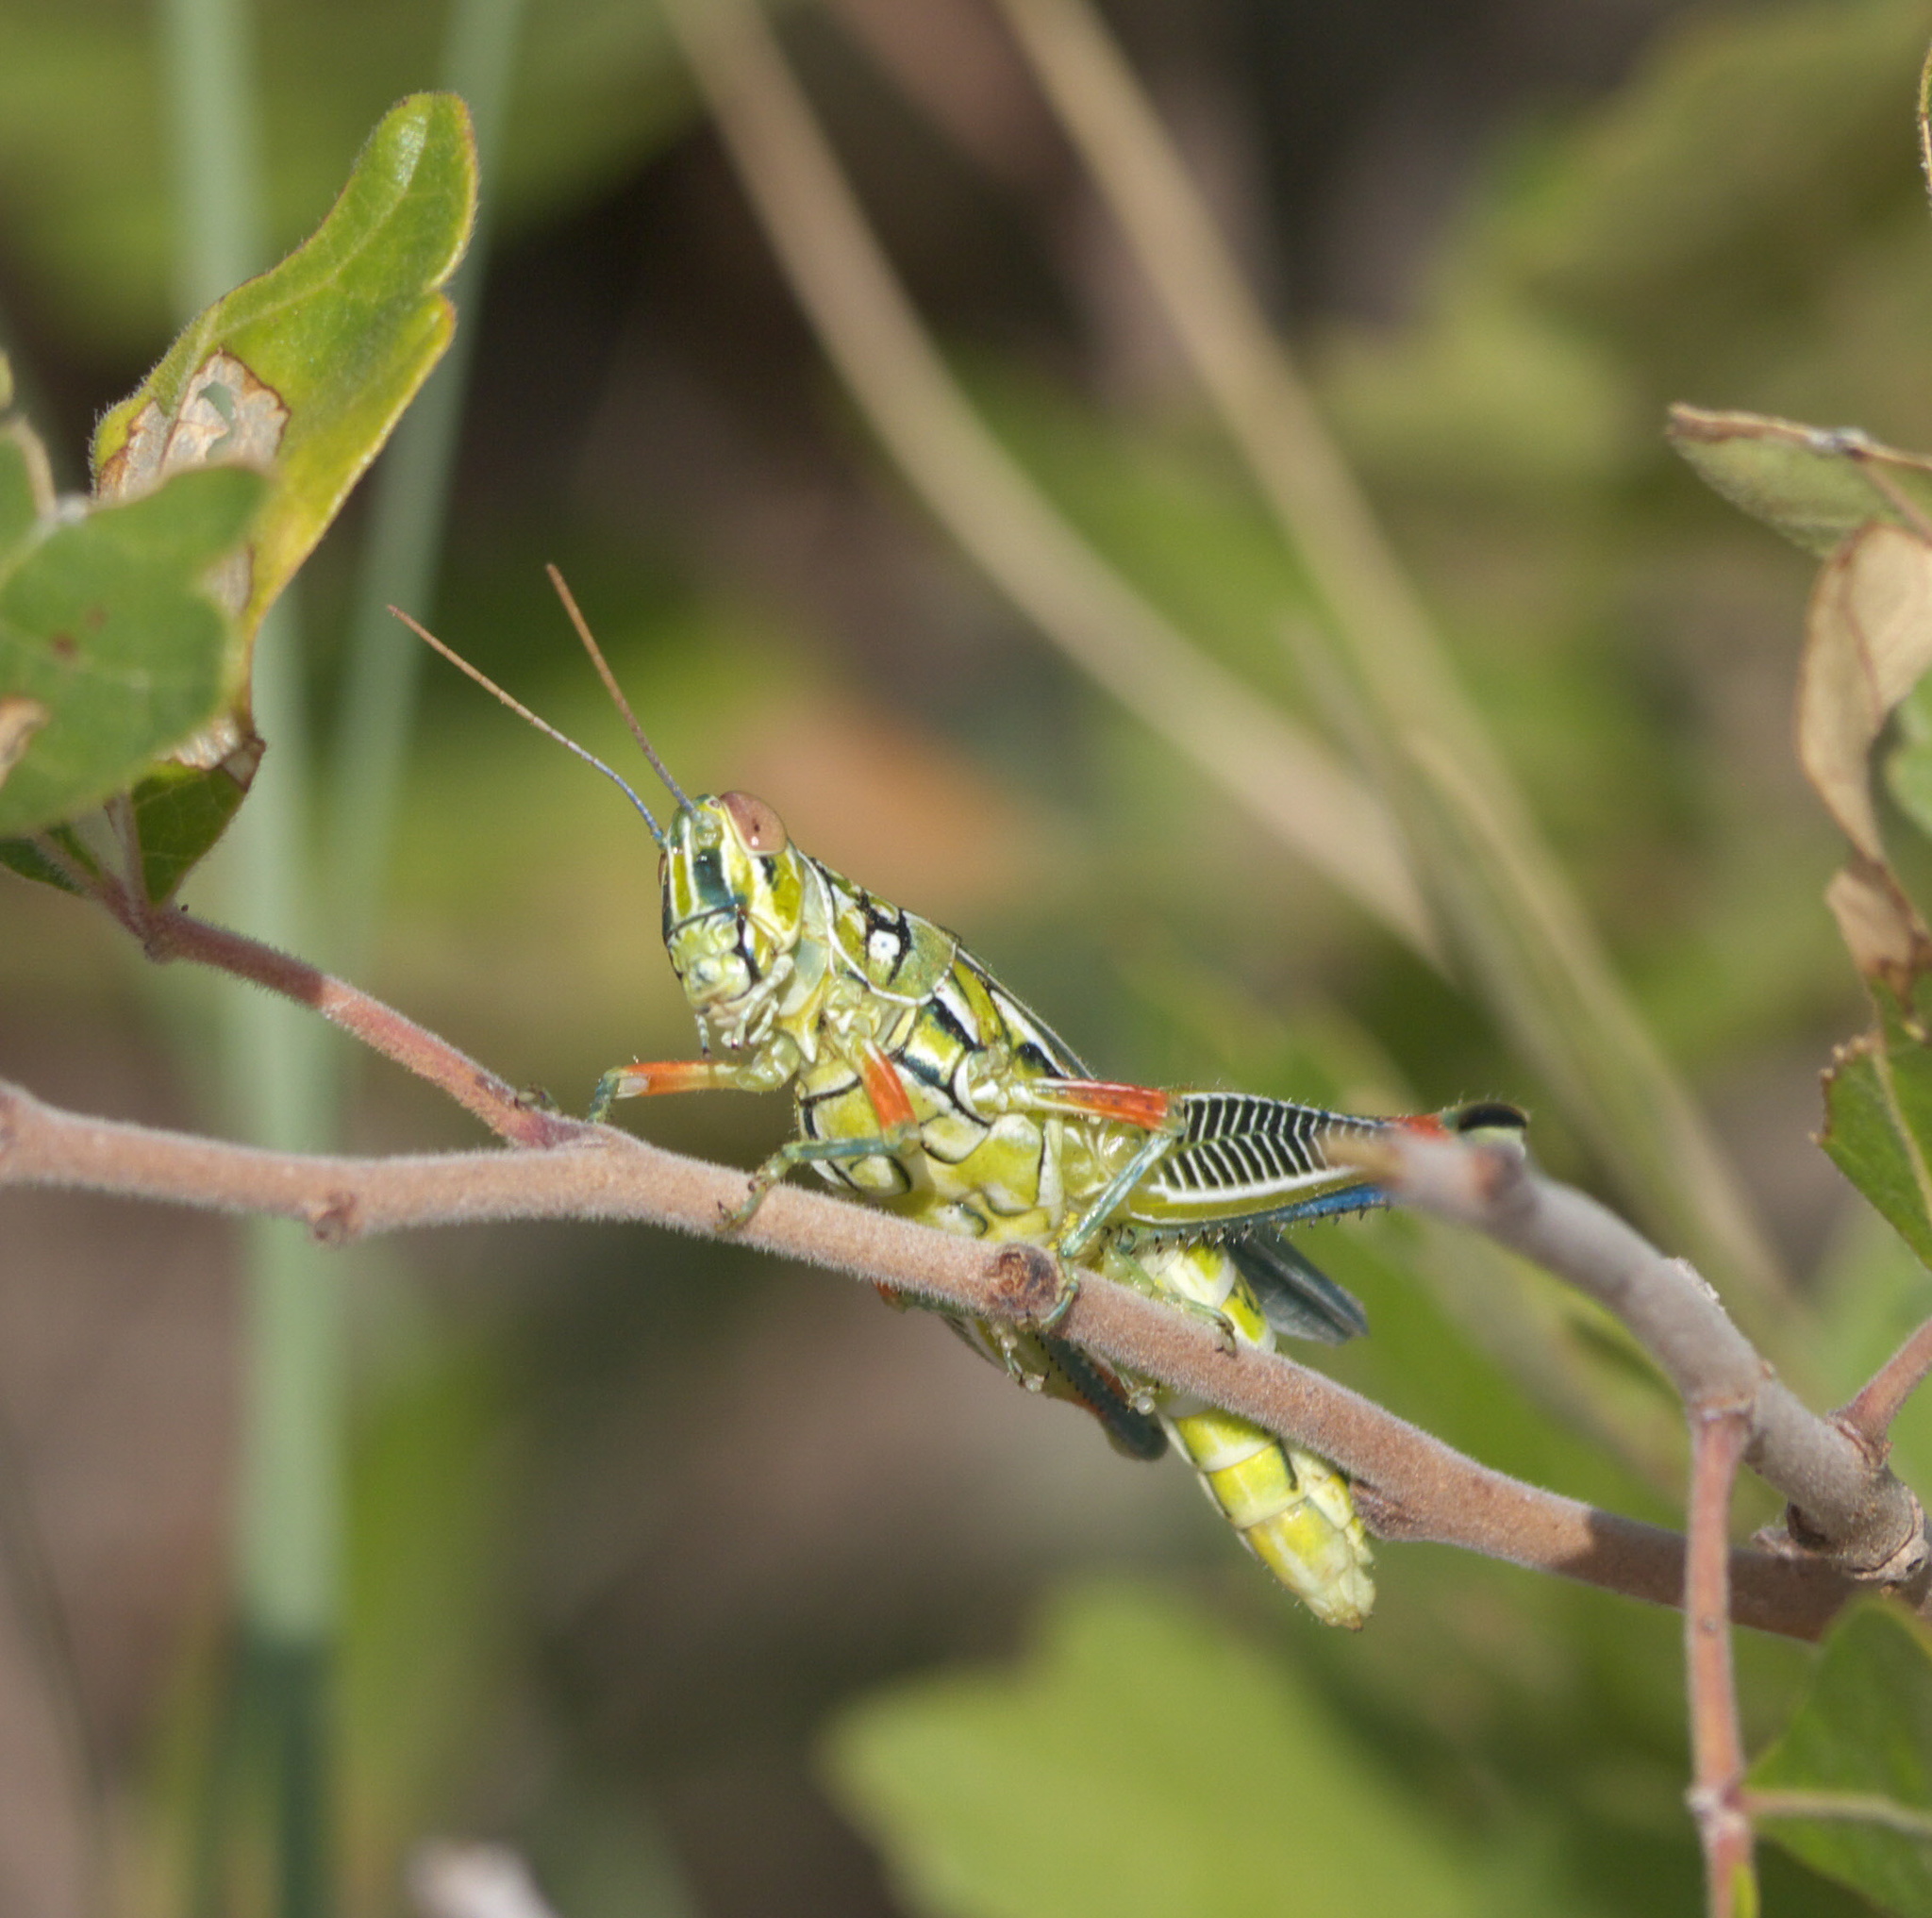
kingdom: Animalia
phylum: Arthropoda
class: Insecta
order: Orthoptera
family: Acrididae
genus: Hesperotettix
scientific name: Hesperotettix viridis
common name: Meadow purple-striped grasshopper
